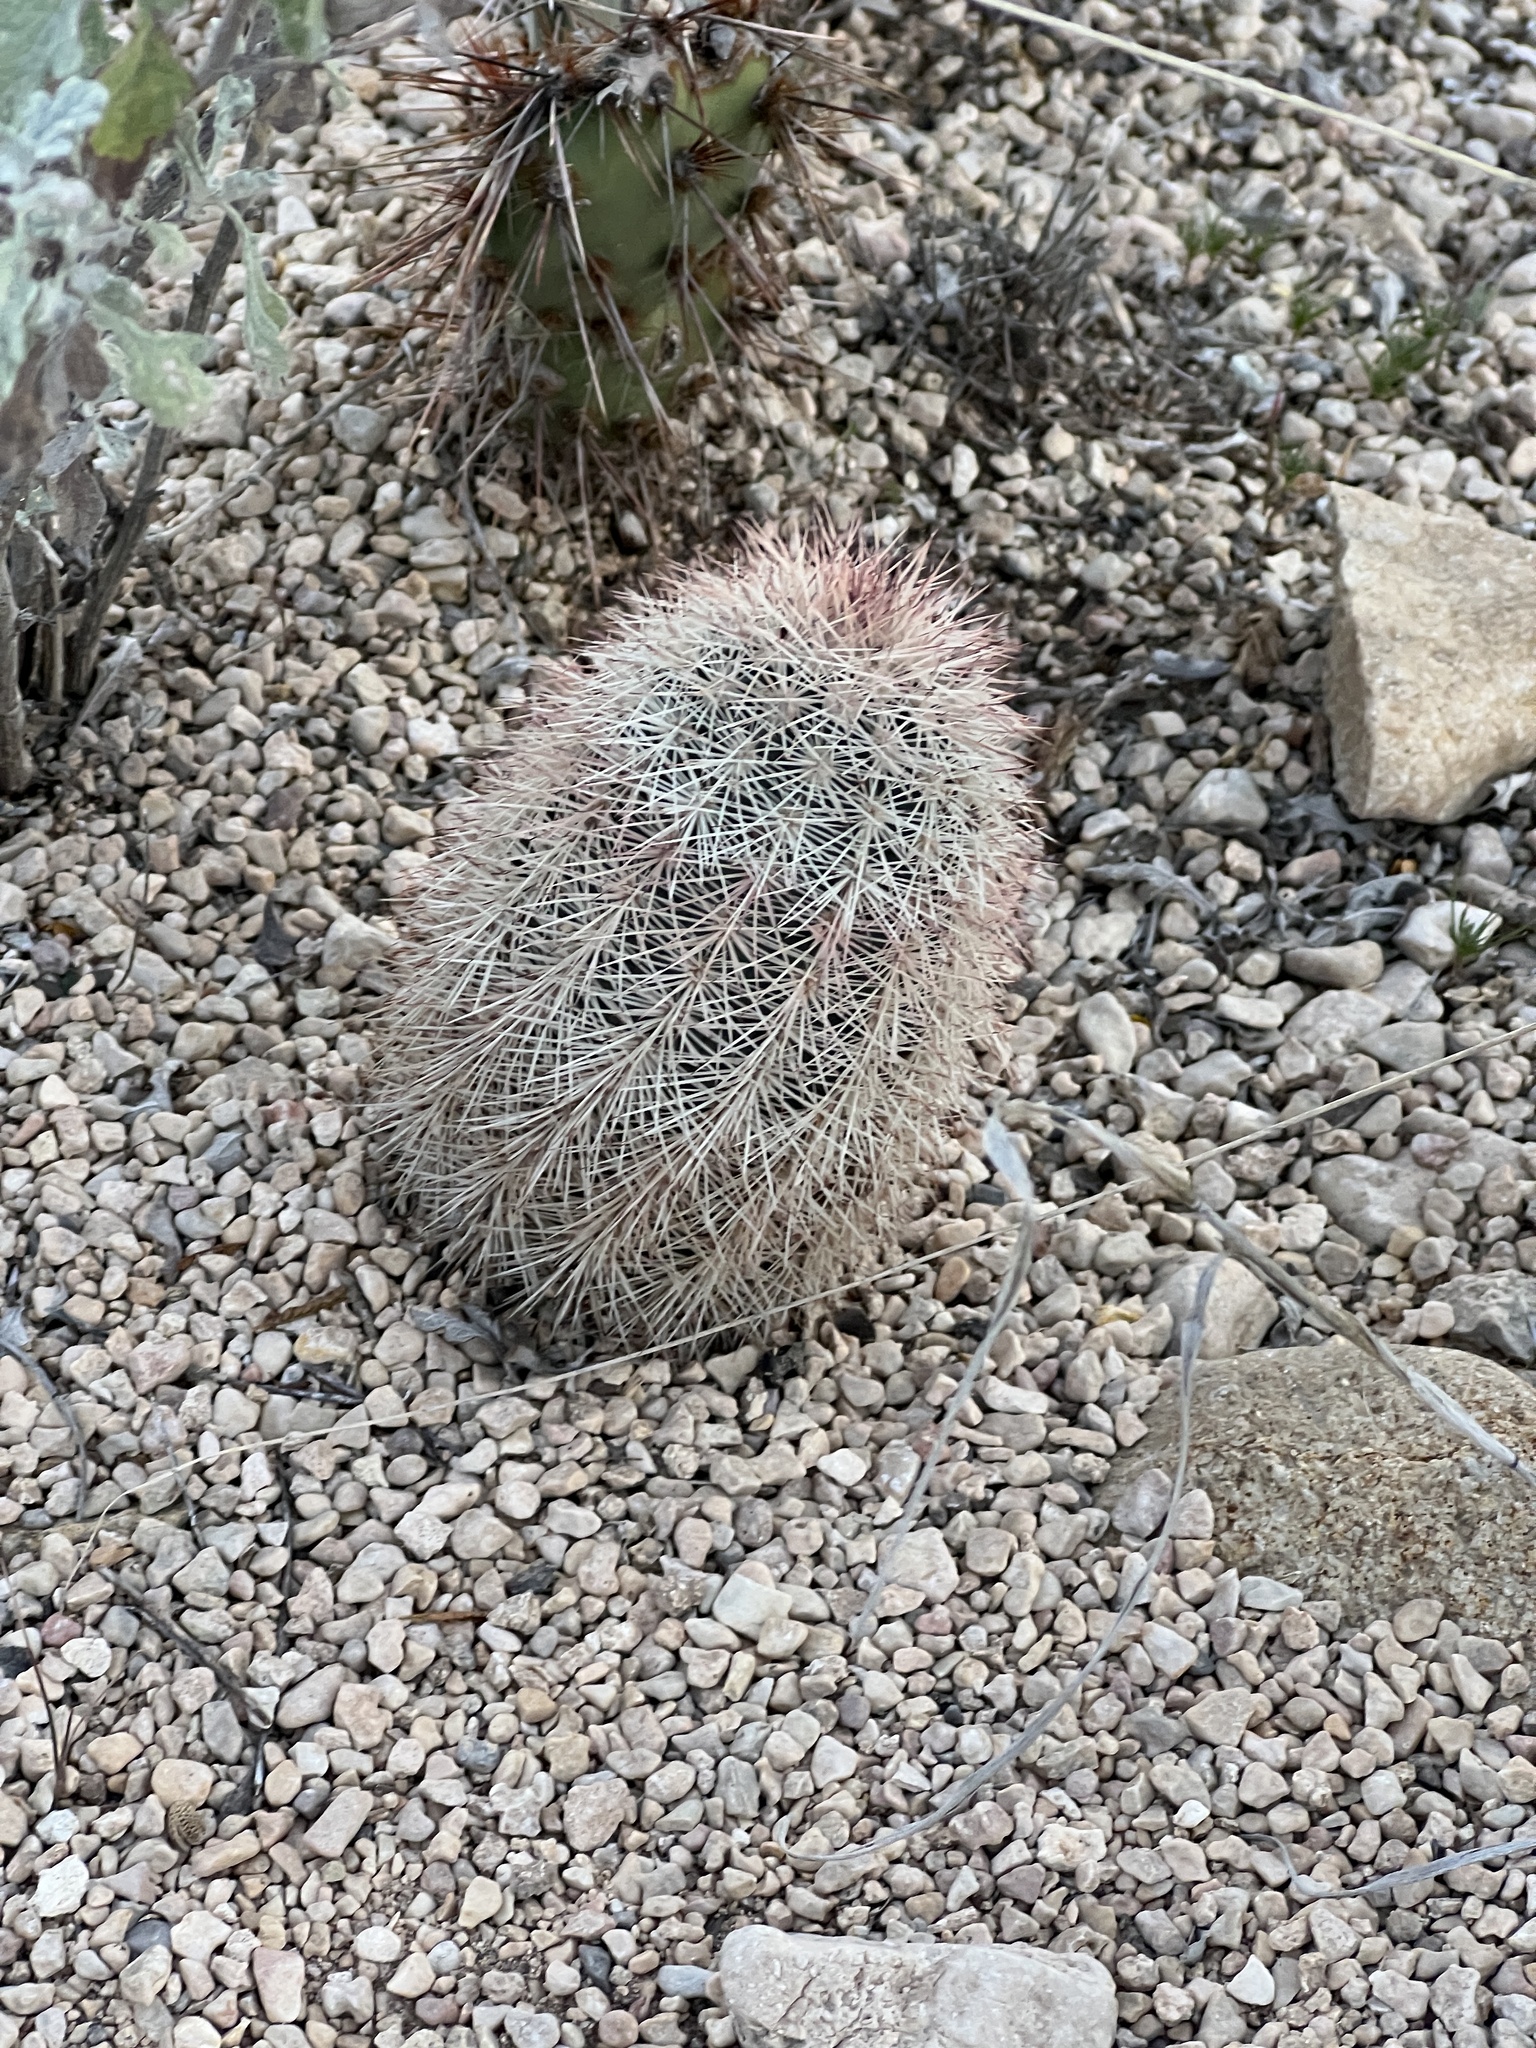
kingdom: Plantae
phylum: Tracheophyta
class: Magnoliopsida
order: Caryophyllales
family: Cactaceae
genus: Echinocereus
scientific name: Echinocereus dasyacanthus
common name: Spiny hedgehog cactus
